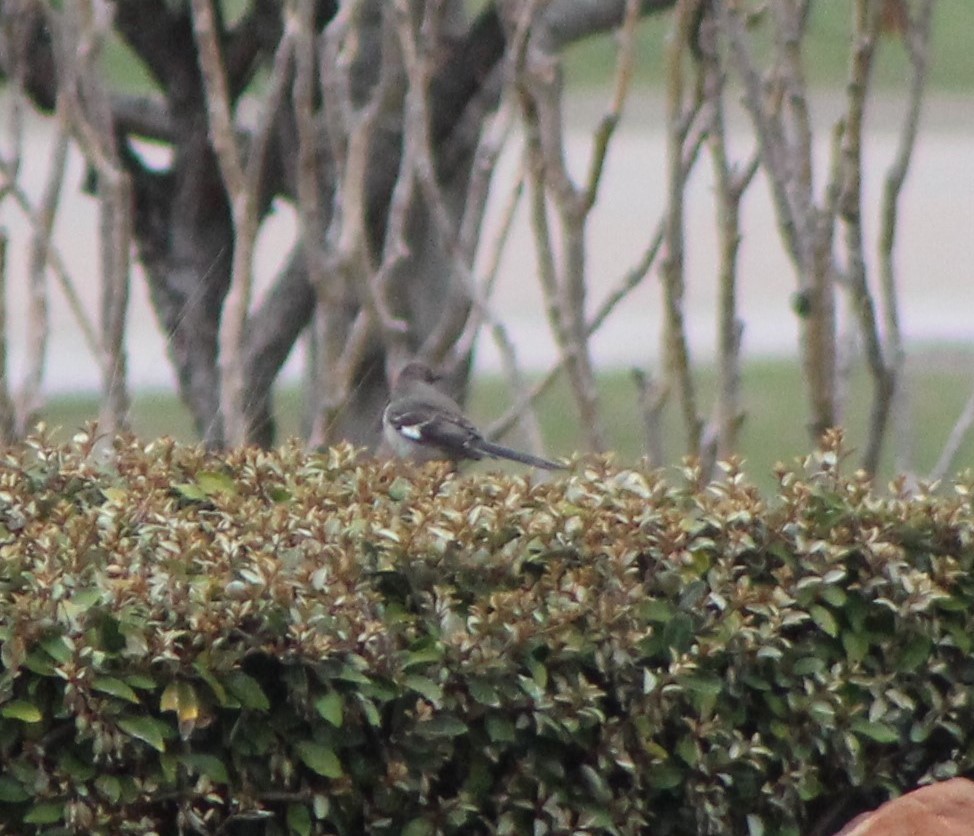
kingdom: Animalia
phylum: Chordata
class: Aves
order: Passeriformes
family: Mimidae
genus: Mimus
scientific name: Mimus polyglottos
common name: Northern mockingbird
